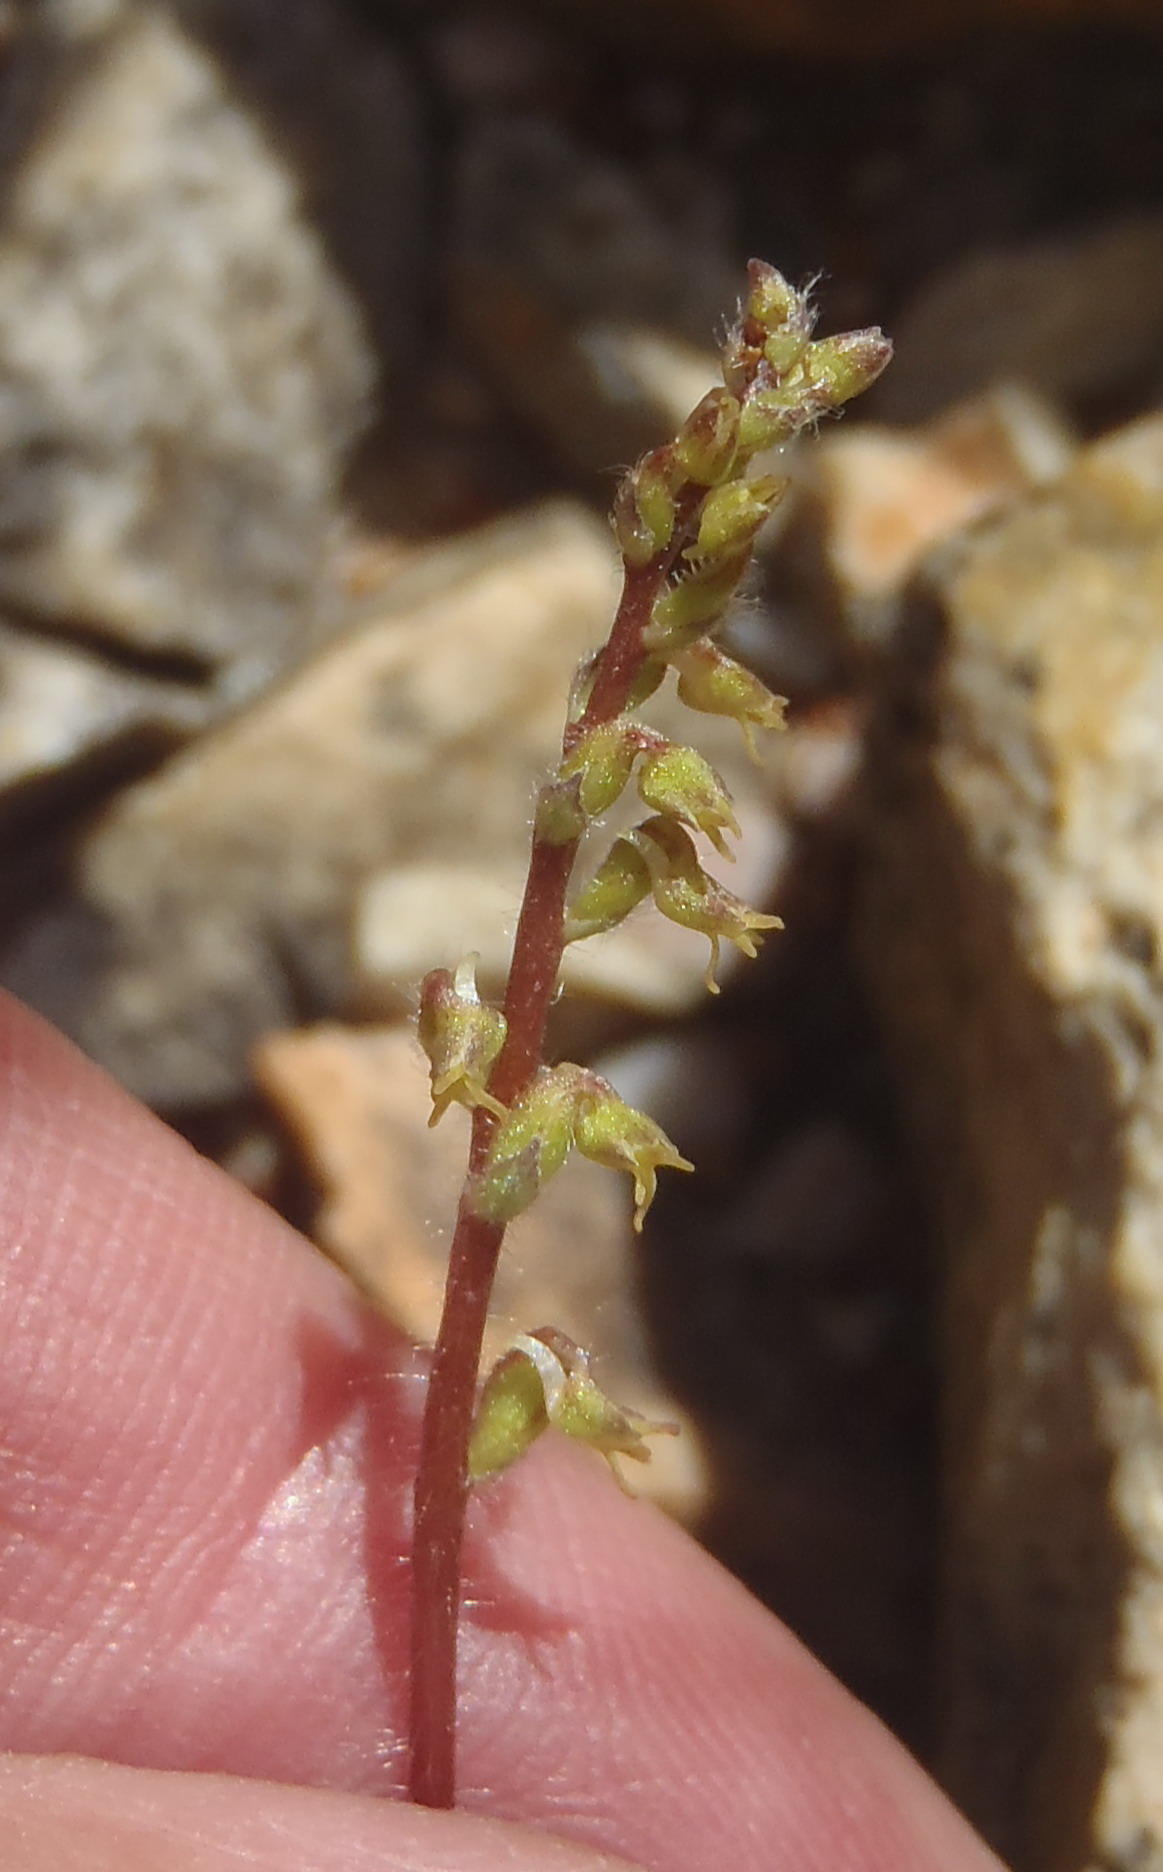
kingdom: Plantae
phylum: Tracheophyta
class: Liliopsida
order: Asparagales
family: Orchidaceae
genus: Holothrix
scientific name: Holothrix villosa
